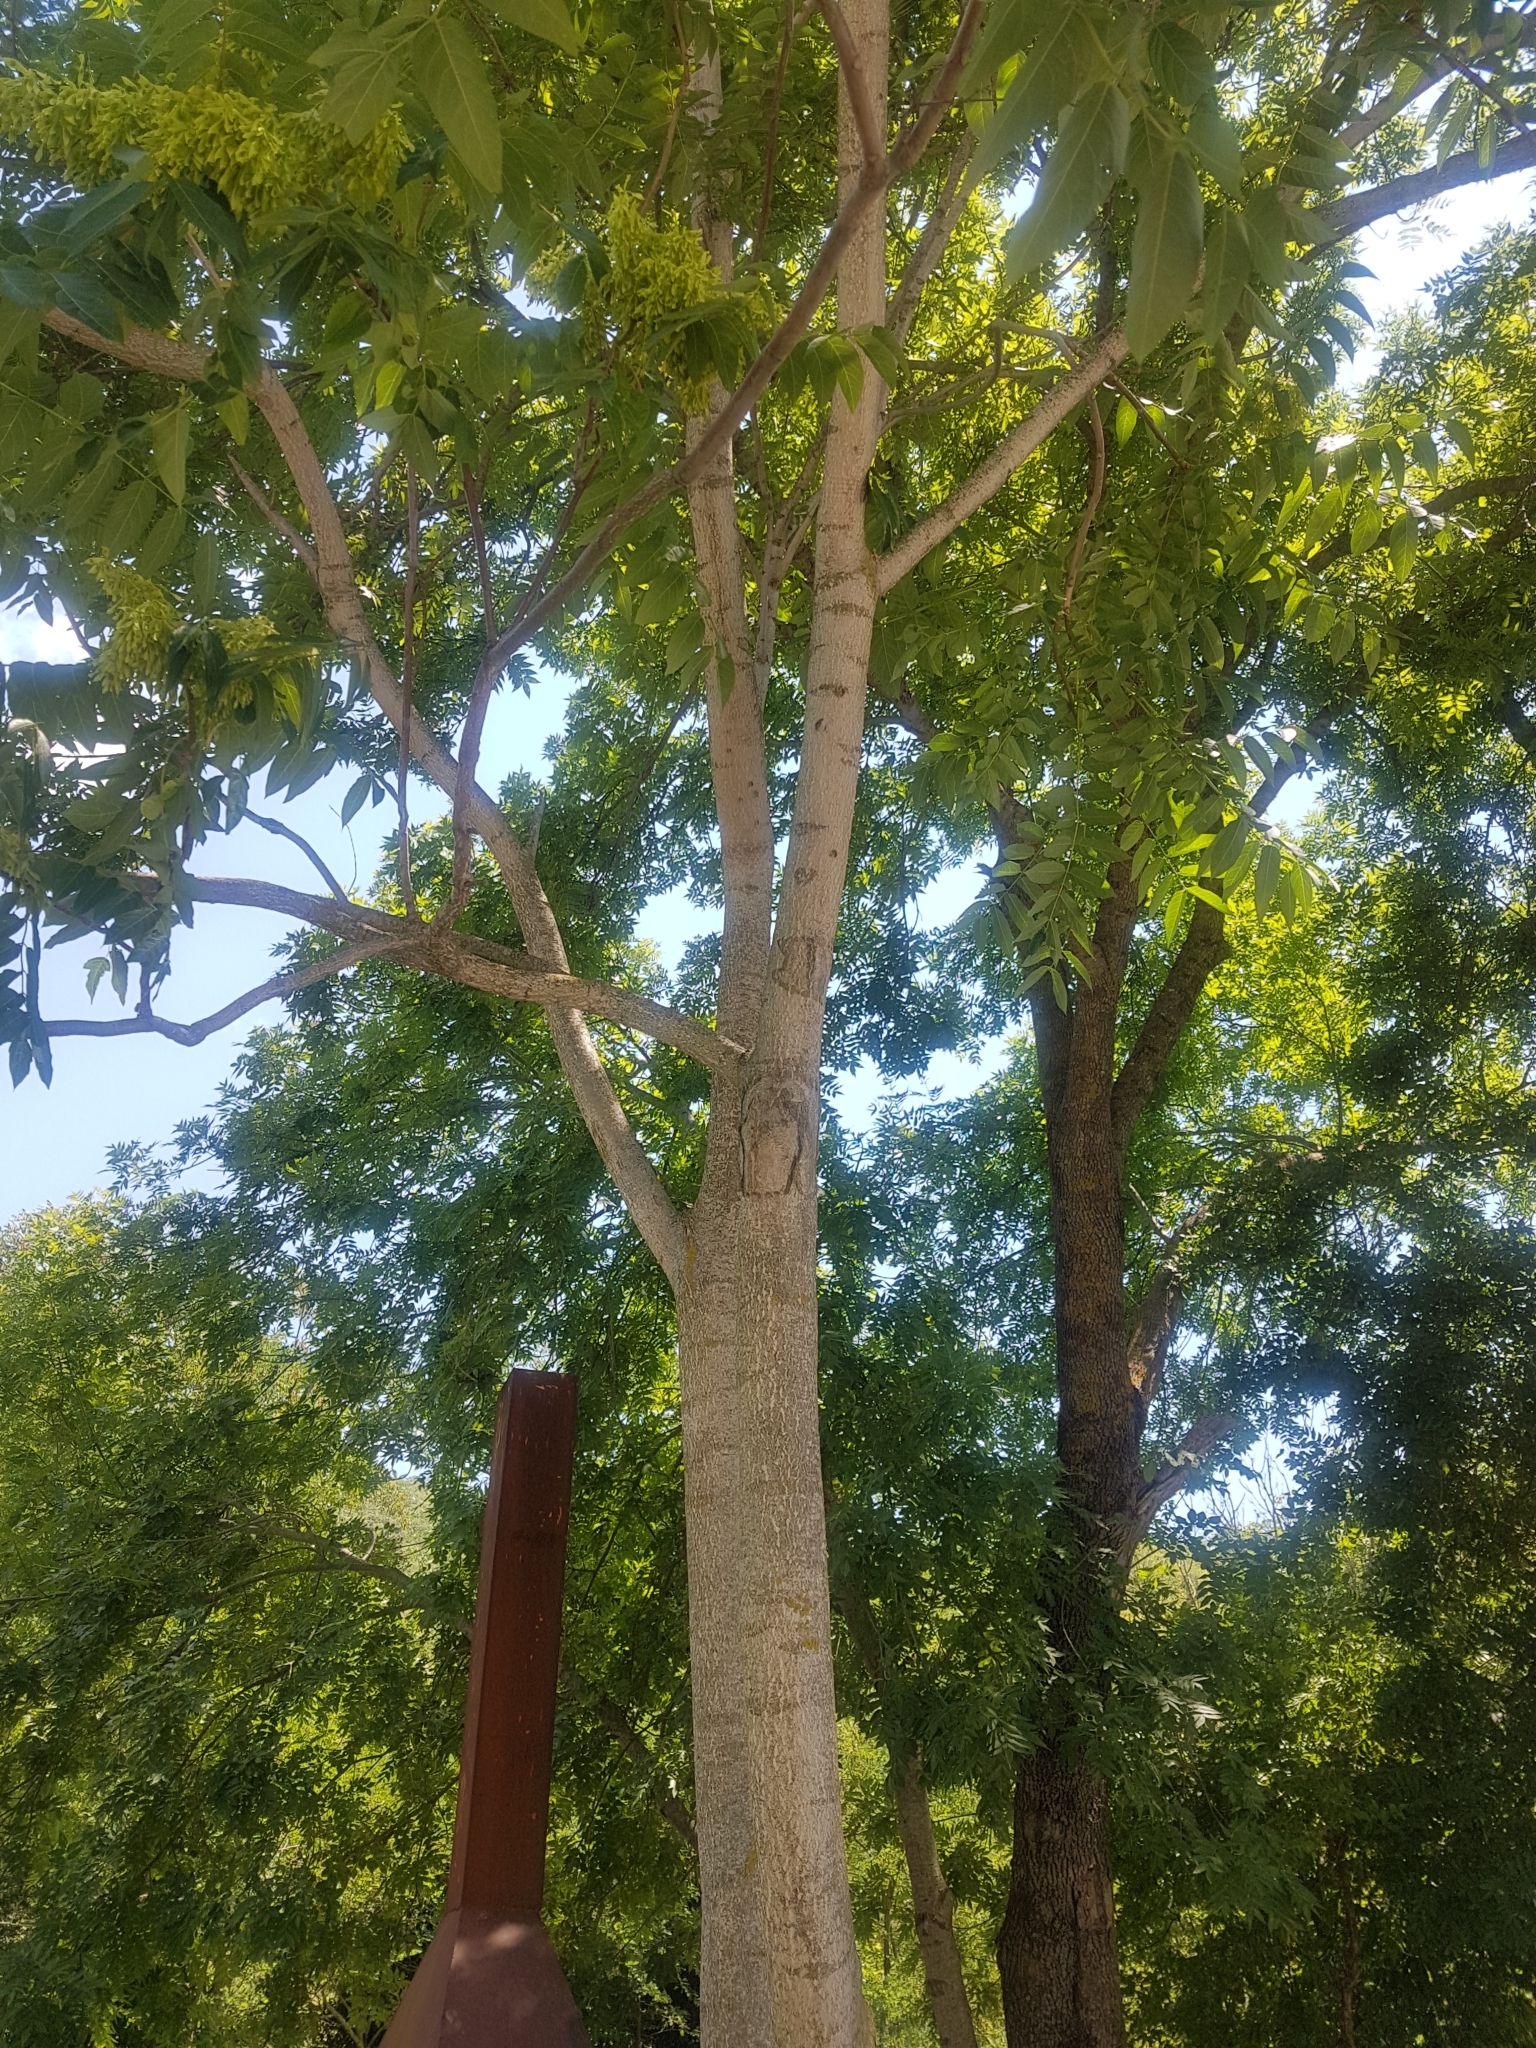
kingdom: Plantae
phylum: Tracheophyta
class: Magnoliopsida
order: Sapindales
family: Simaroubaceae
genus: Ailanthus
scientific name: Ailanthus altissima
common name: Tree-of-heaven
